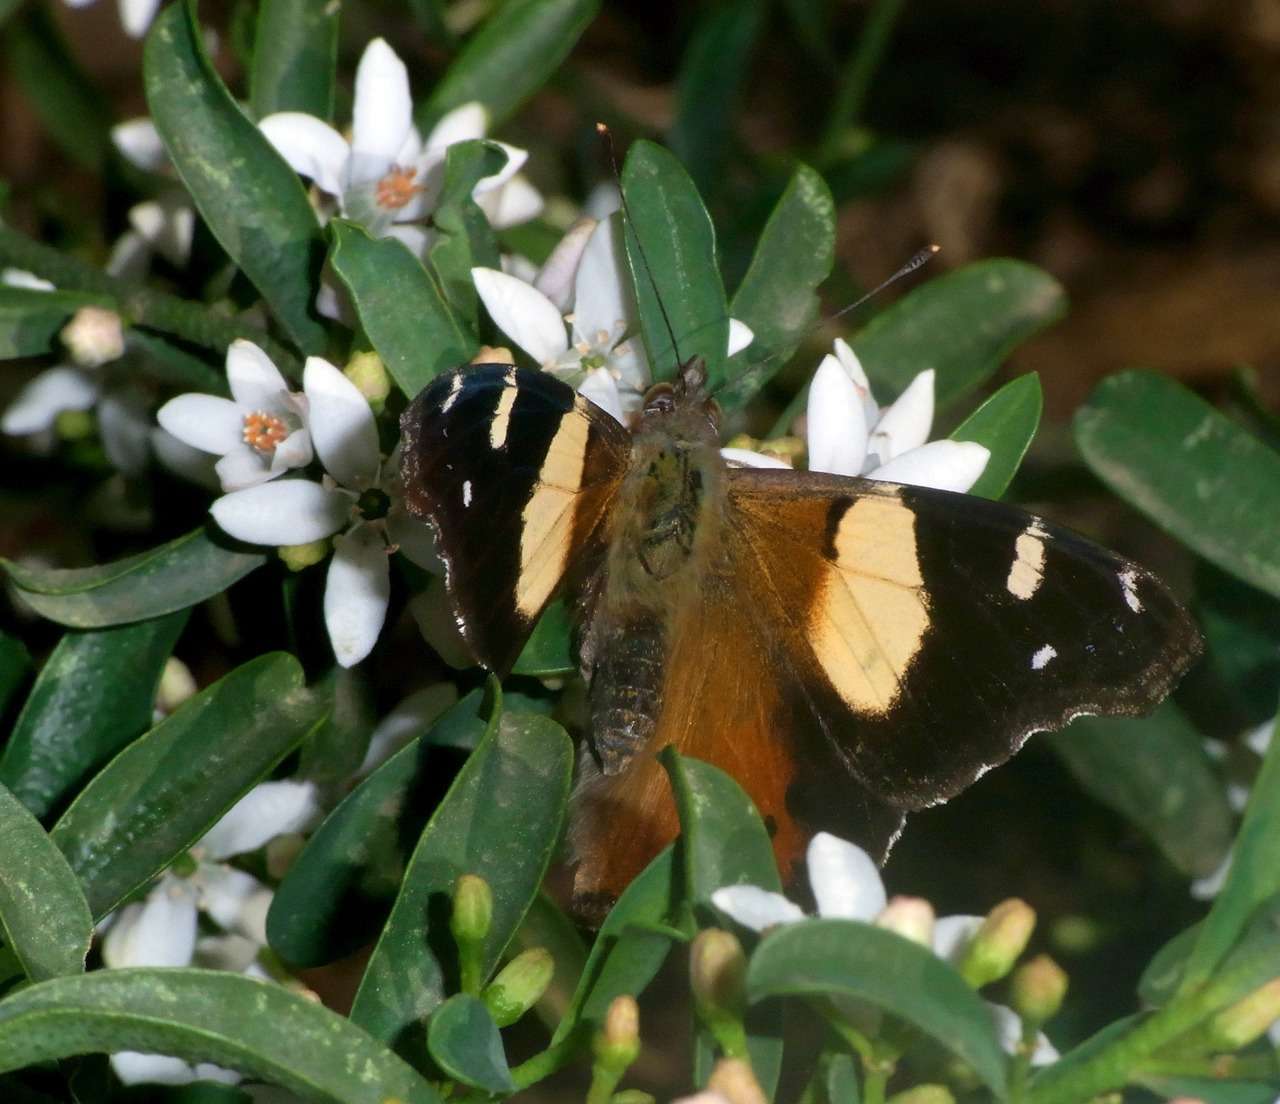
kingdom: Animalia
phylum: Arthropoda
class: Insecta
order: Lepidoptera
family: Nymphalidae
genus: Vanessa
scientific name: Vanessa itea
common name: Yellow admiral
